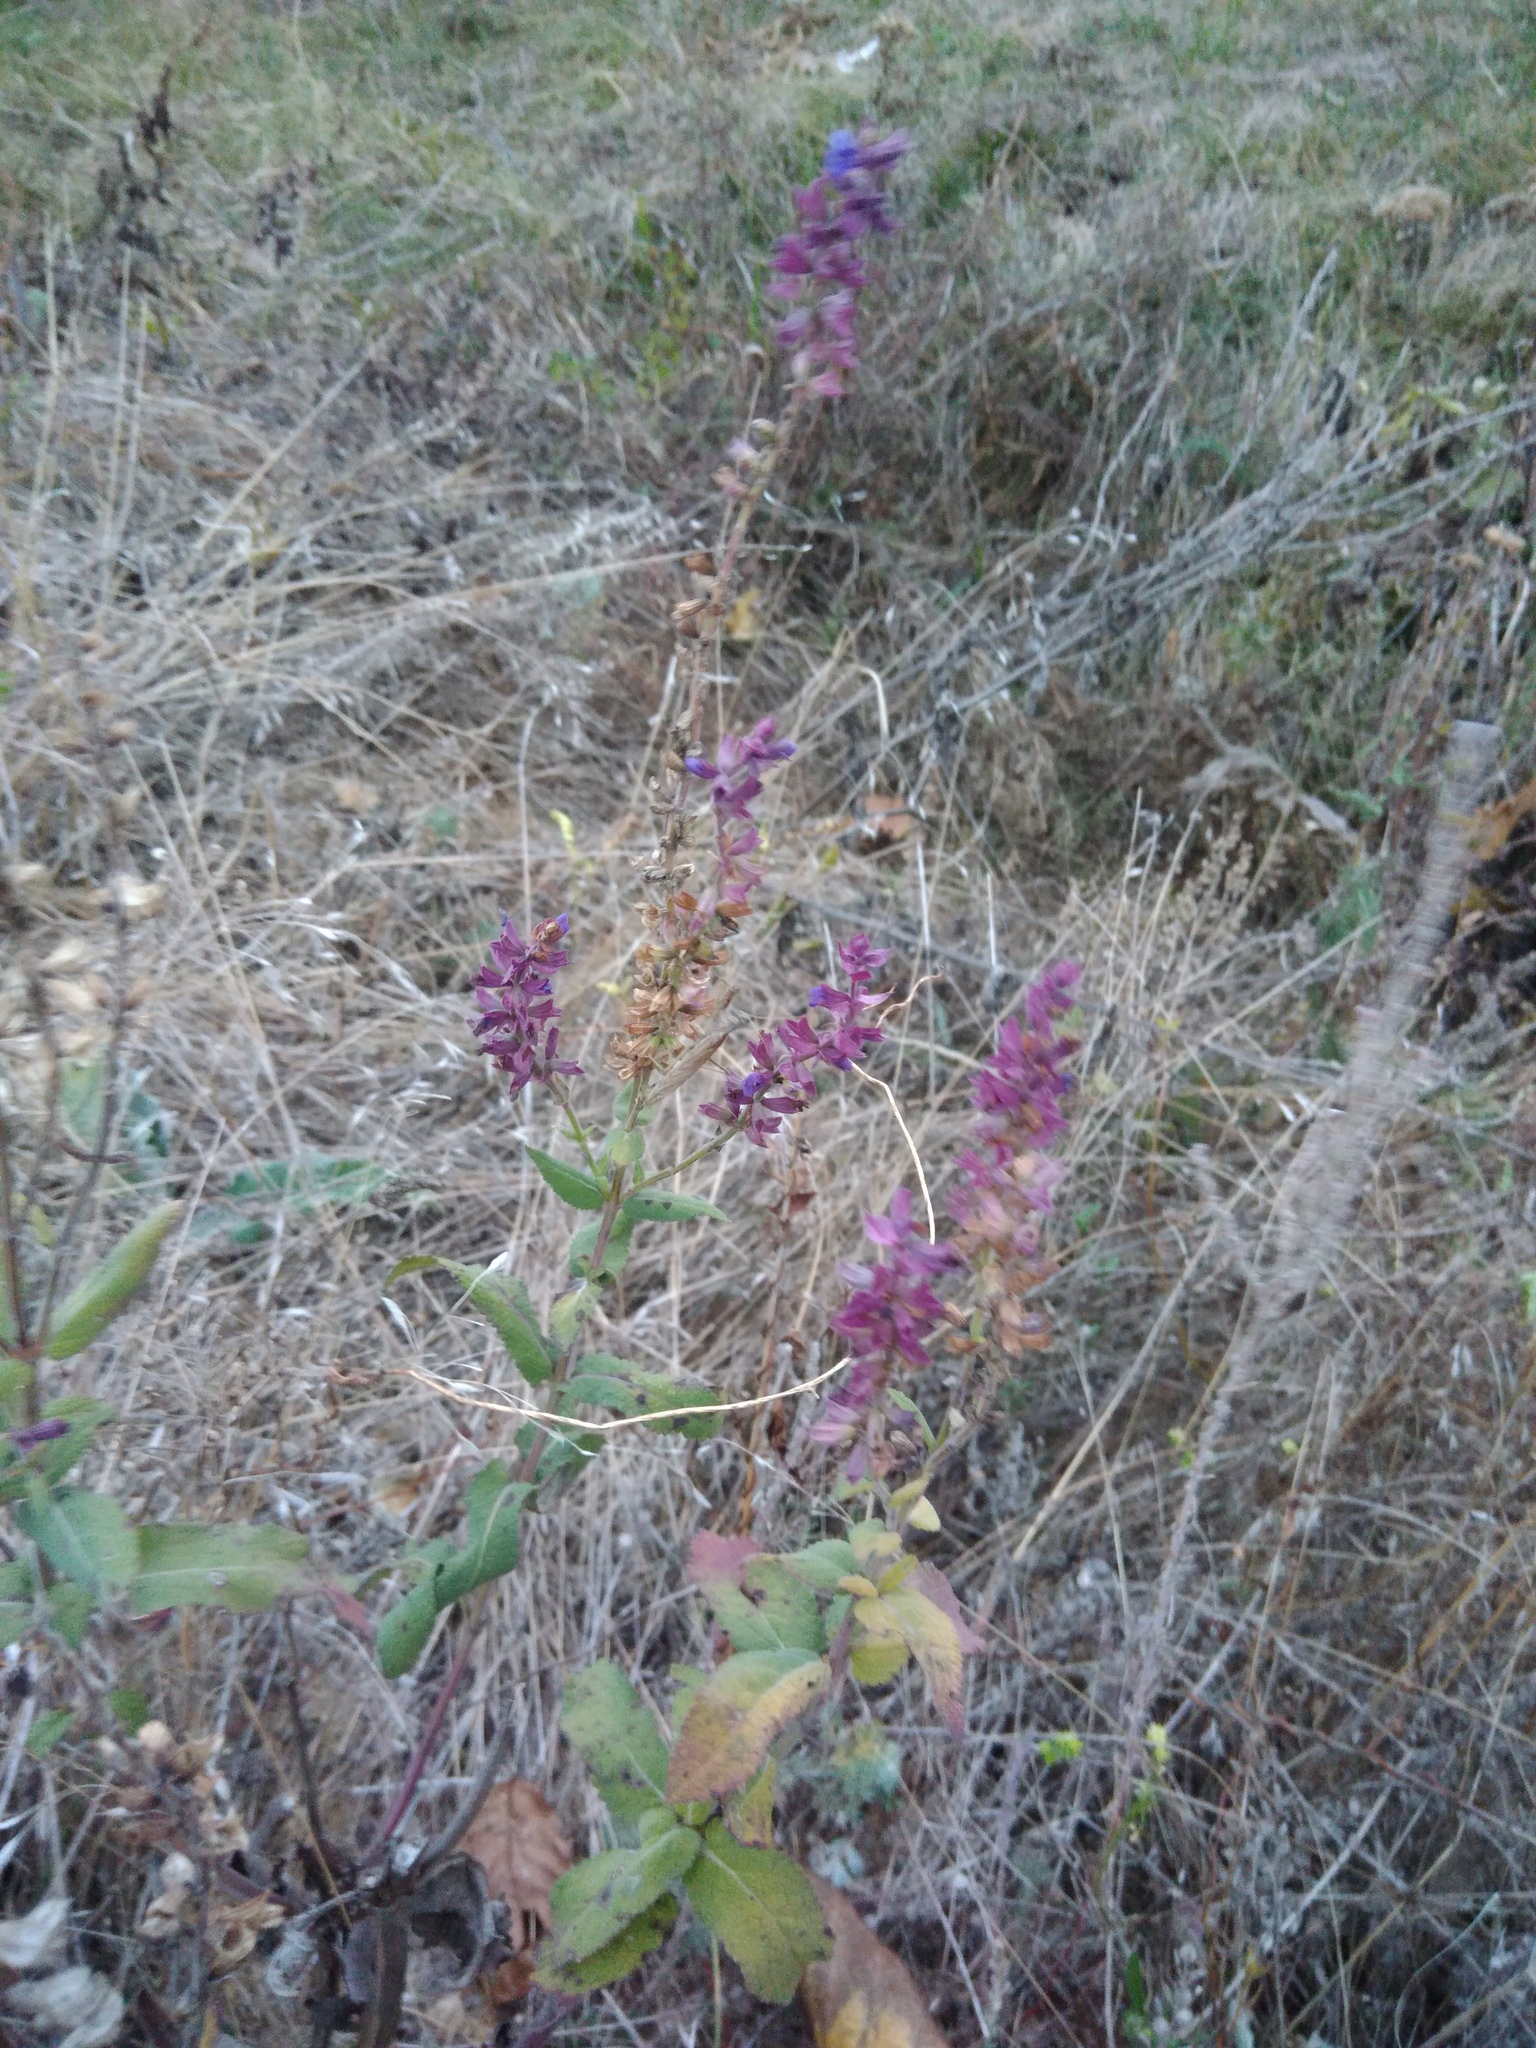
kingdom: Plantae
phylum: Tracheophyta
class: Magnoliopsida
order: Lamiales
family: Lamiaceae
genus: Salvia
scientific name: Salvia nemorosa
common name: Balkan clary
